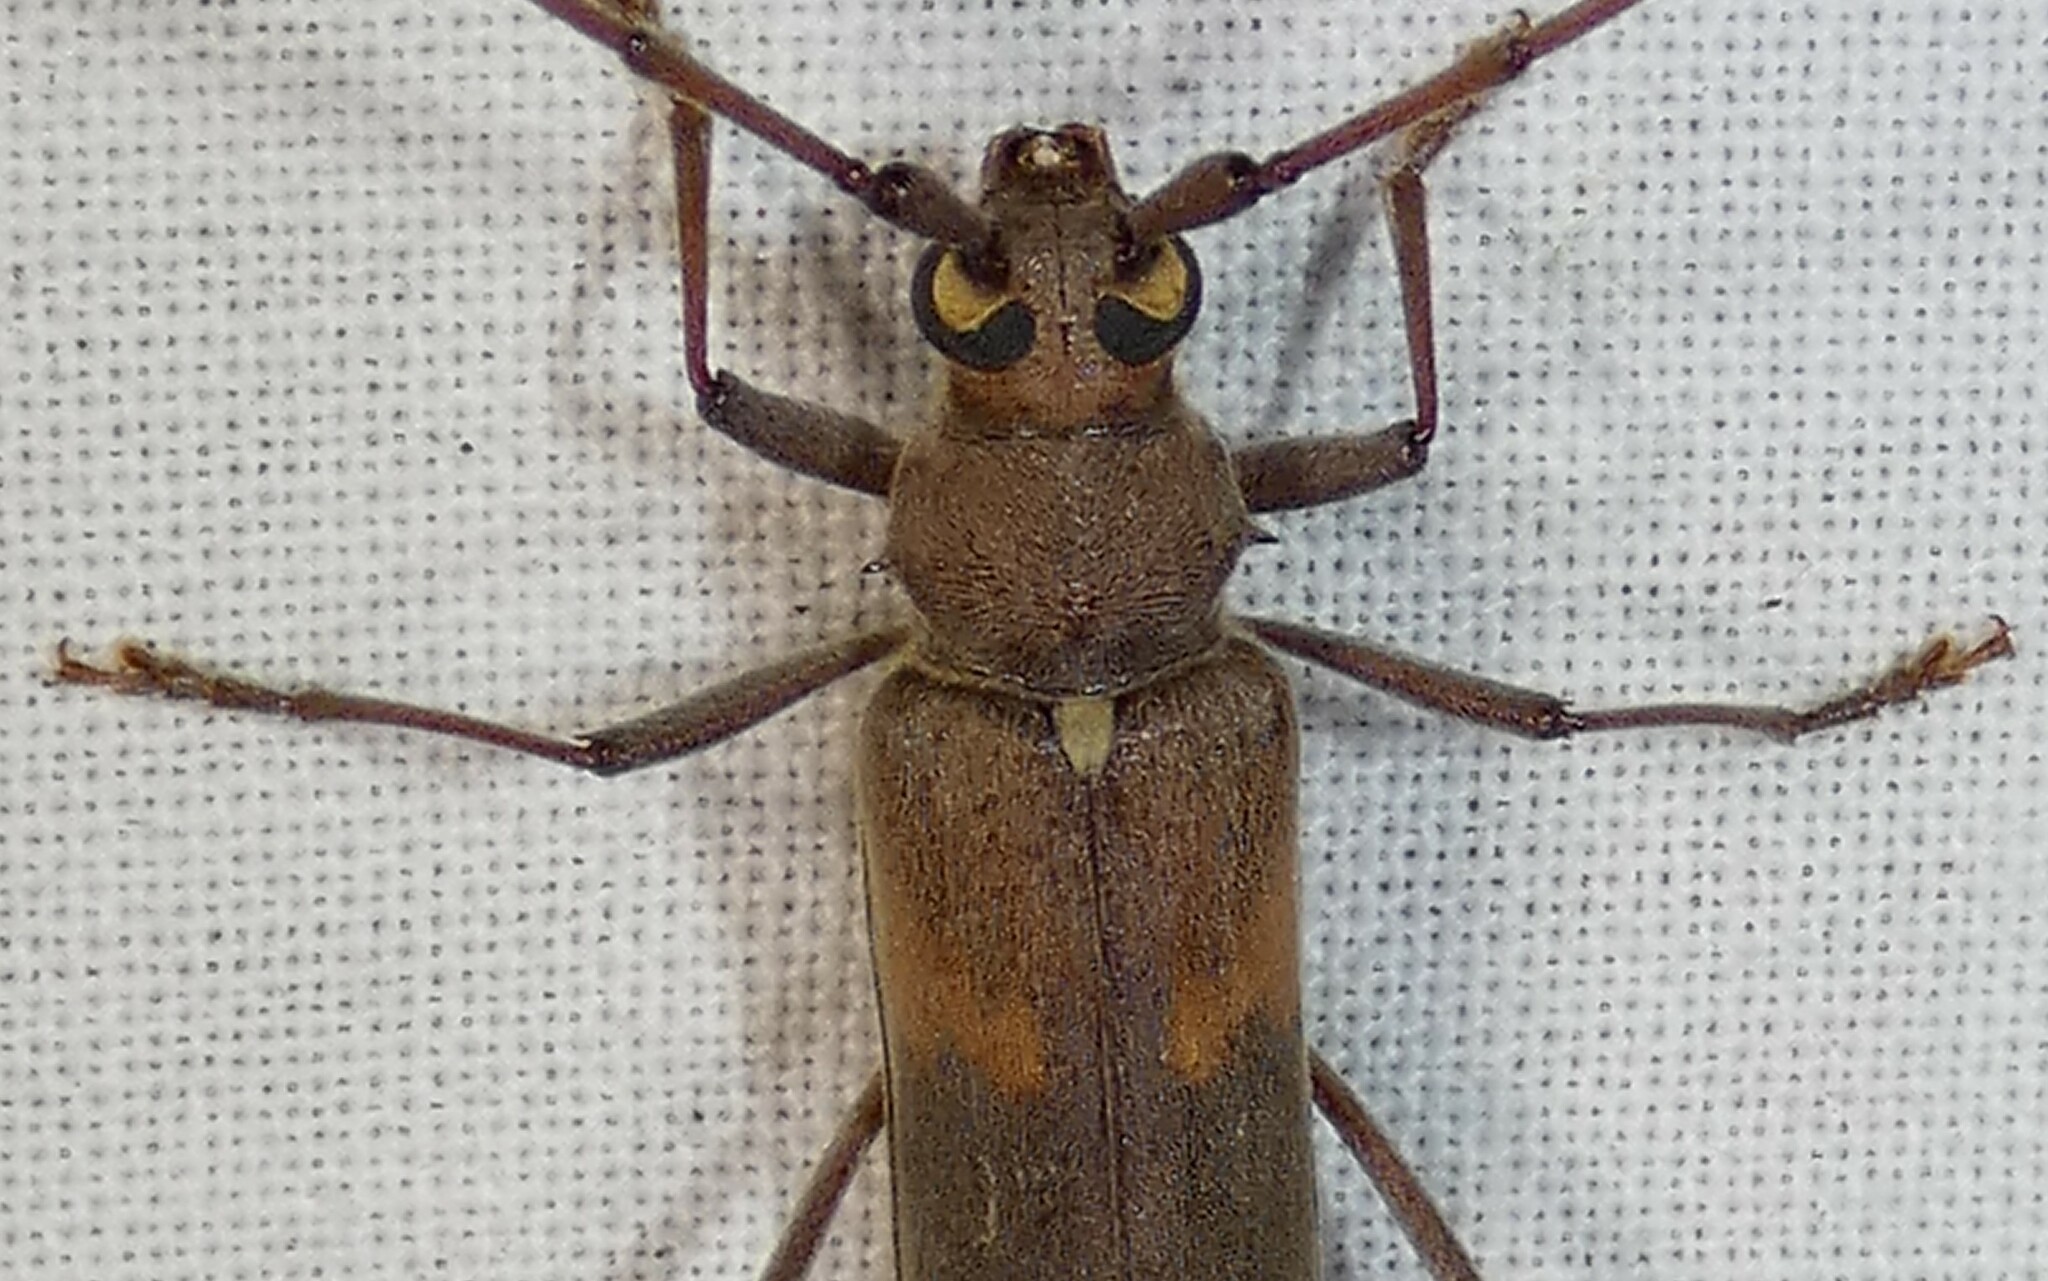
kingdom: Animalia
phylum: Arthropoda
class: Insecta
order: Coleoptera
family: Cerambycidae
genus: Knulliana
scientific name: Knulliana cincta
